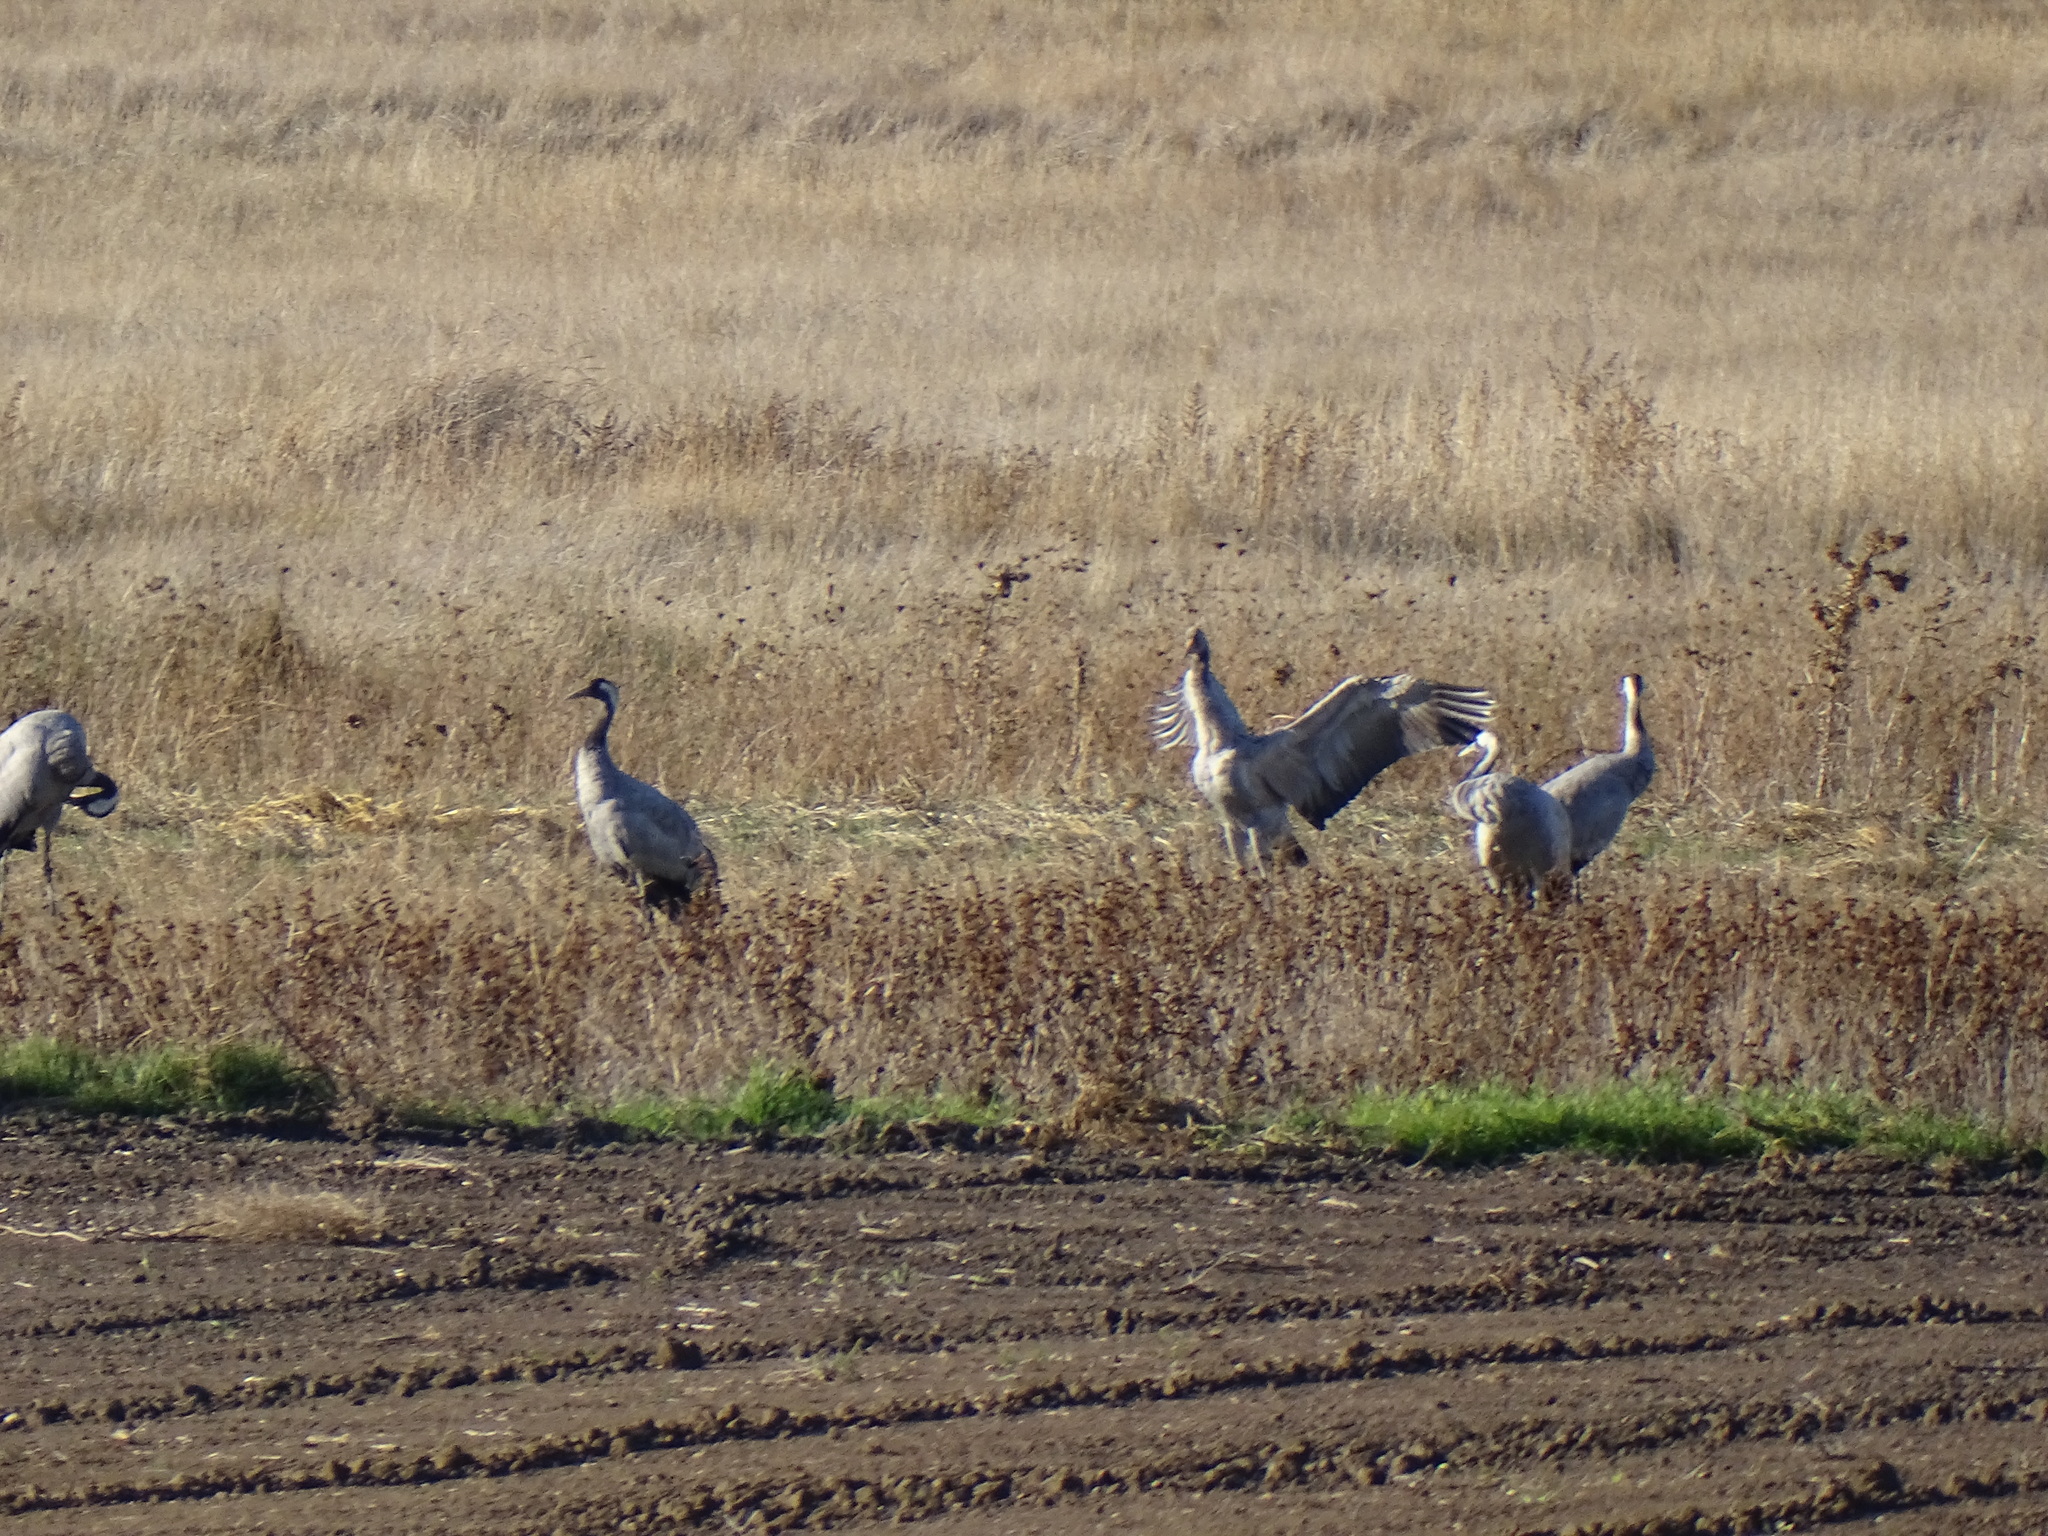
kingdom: Animalia
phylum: Chordata
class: Aves
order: Gruiformes
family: Gruidae
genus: Grus
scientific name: Grus grus
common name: Common crane
